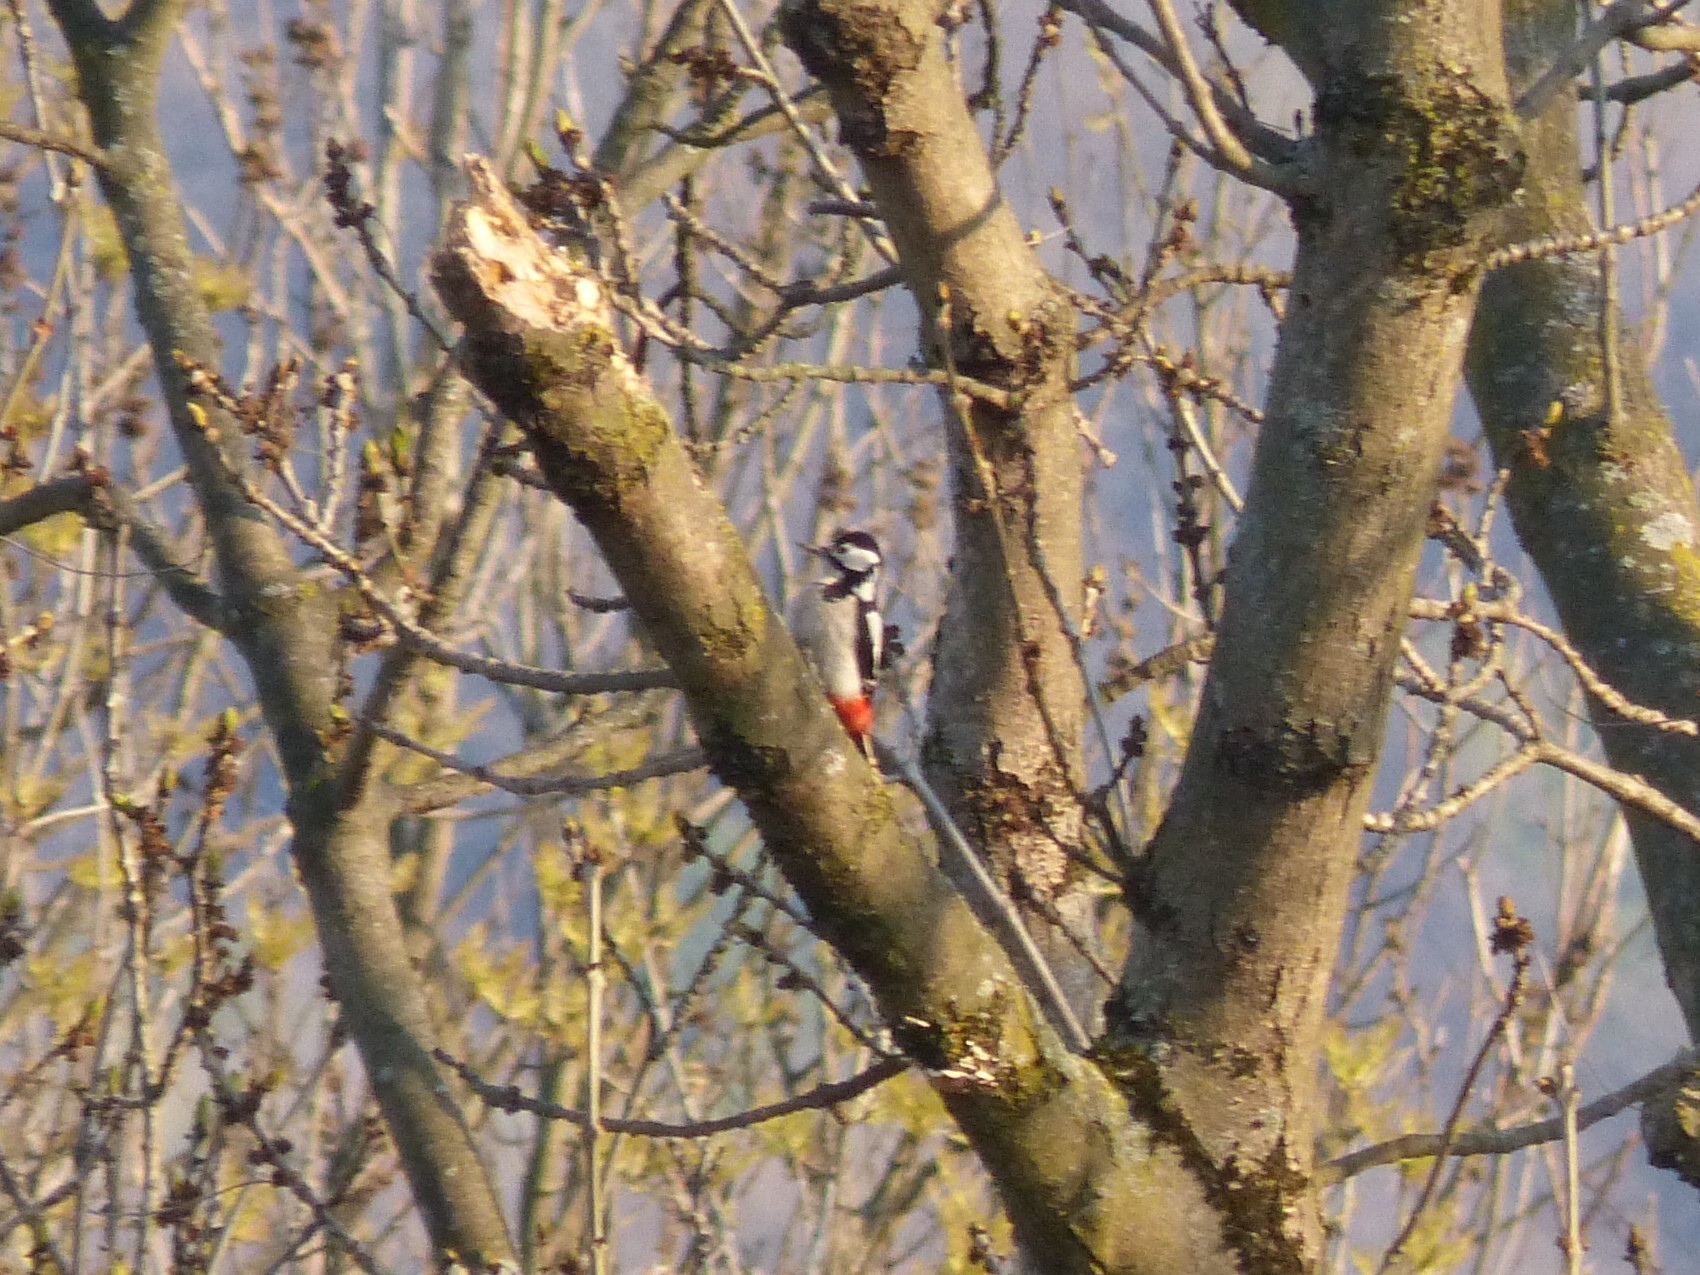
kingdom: Animalia
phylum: Chordata
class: Aves
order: Piciformes
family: Picidae
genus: Dendrocopos
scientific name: Dendrocopos major
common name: Great spotted woodpecker
